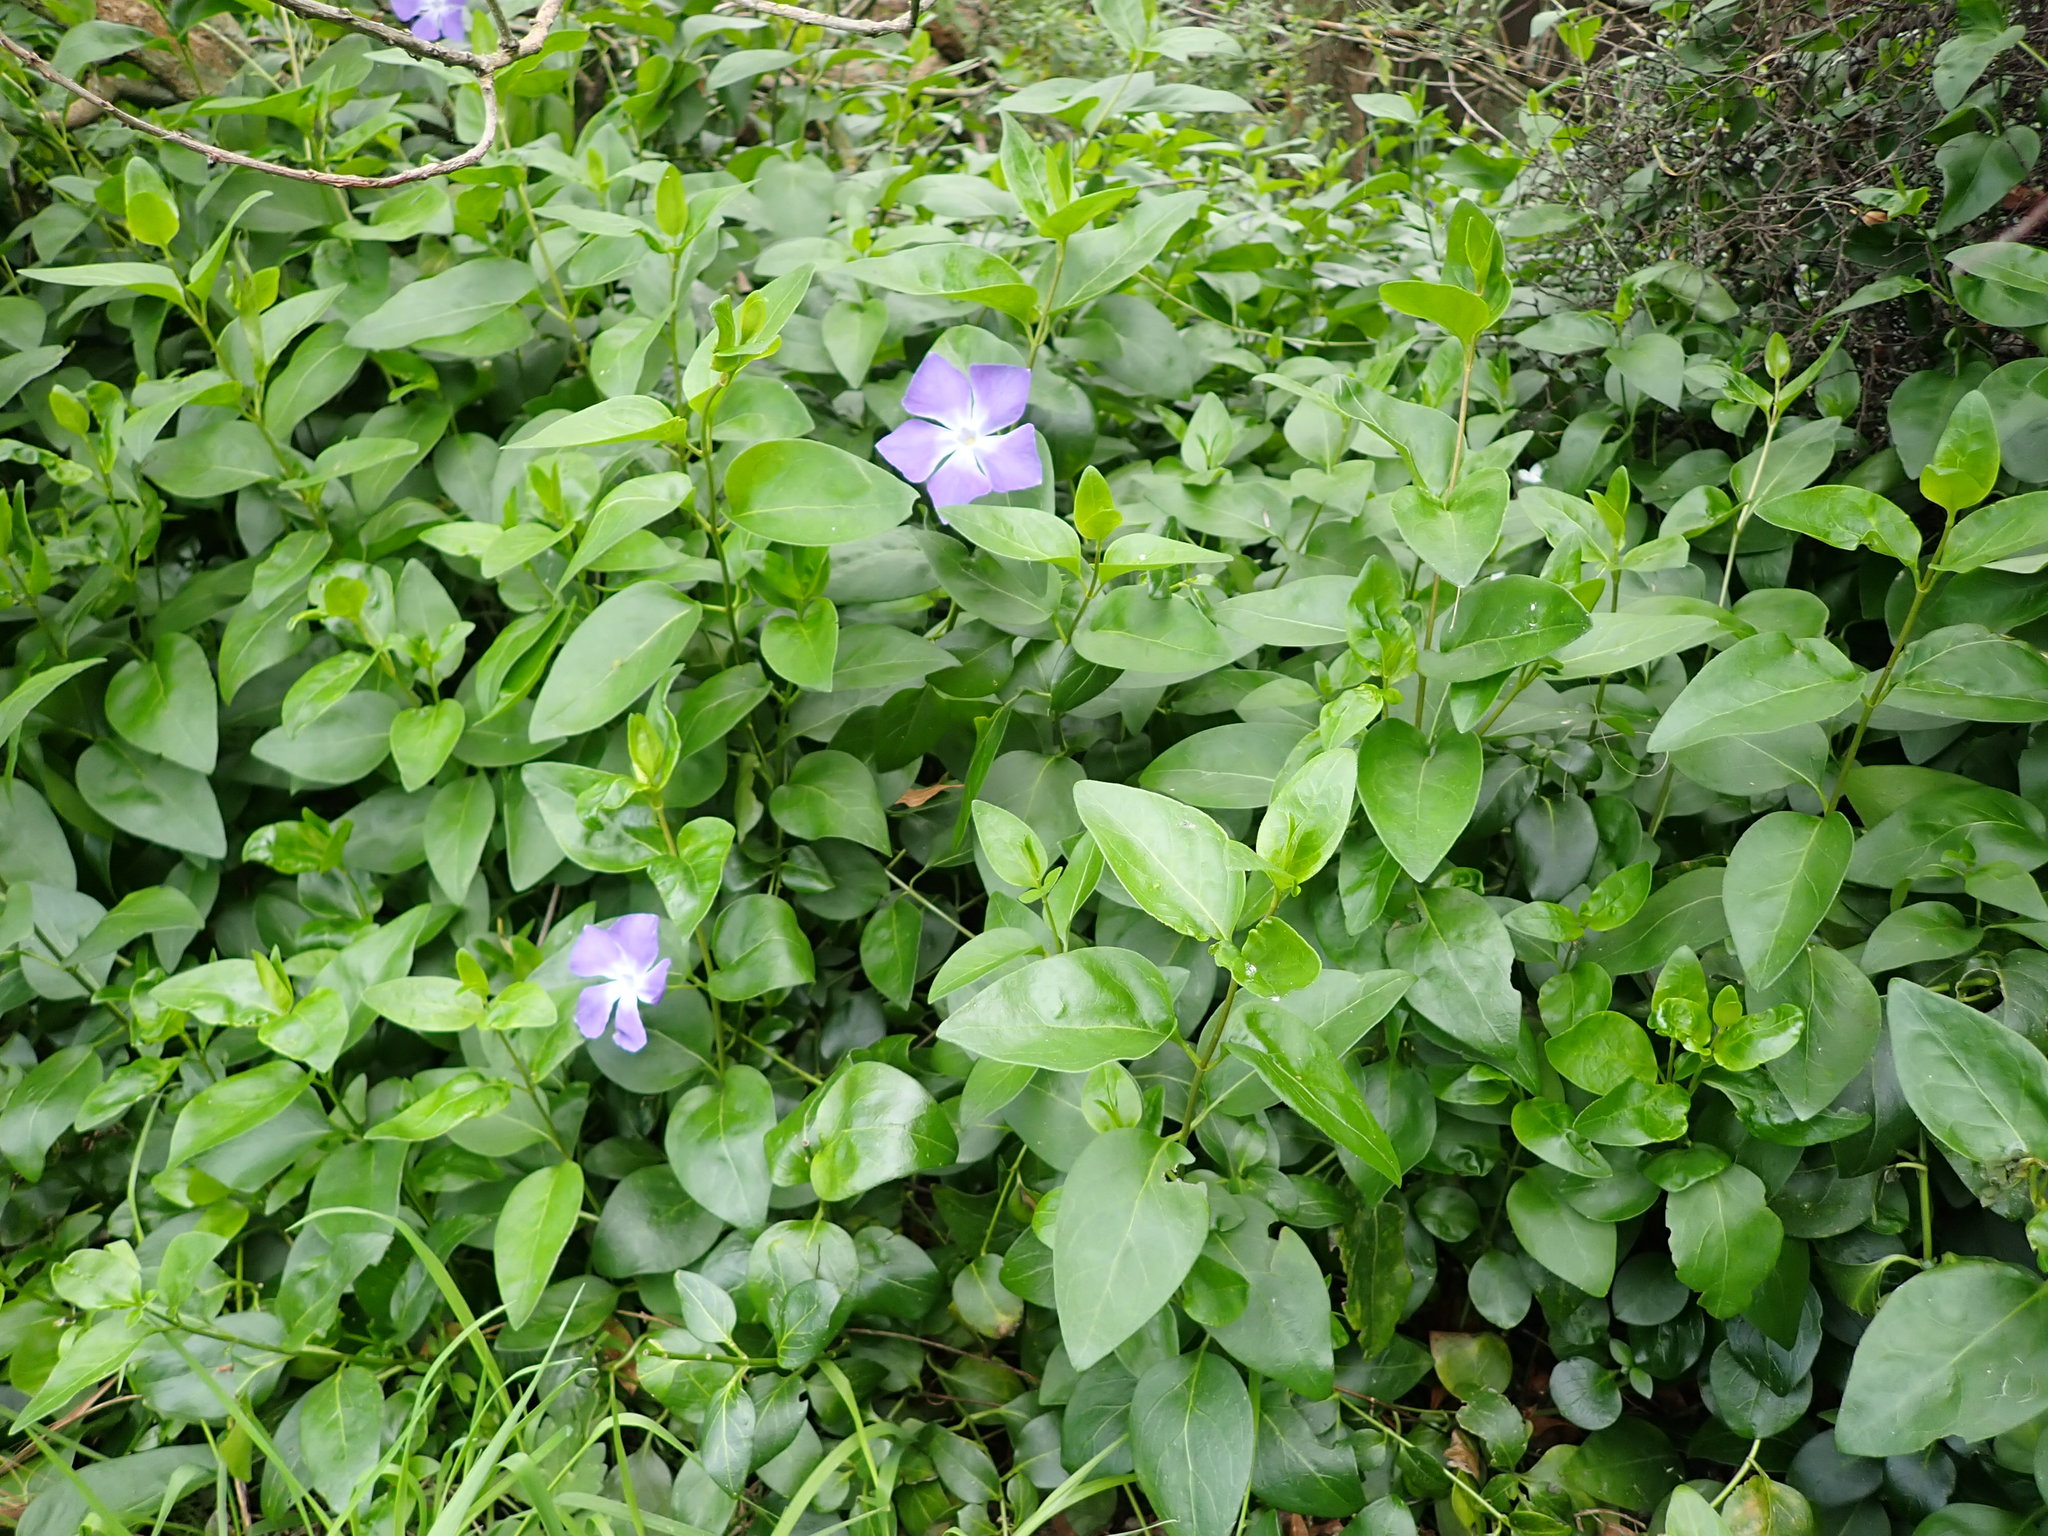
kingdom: Plantae
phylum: Tracheophyta
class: Magnoliopsida
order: Gentianales
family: Apocynaceae
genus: Vinca
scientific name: Vinca major
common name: Greater periwinkle
